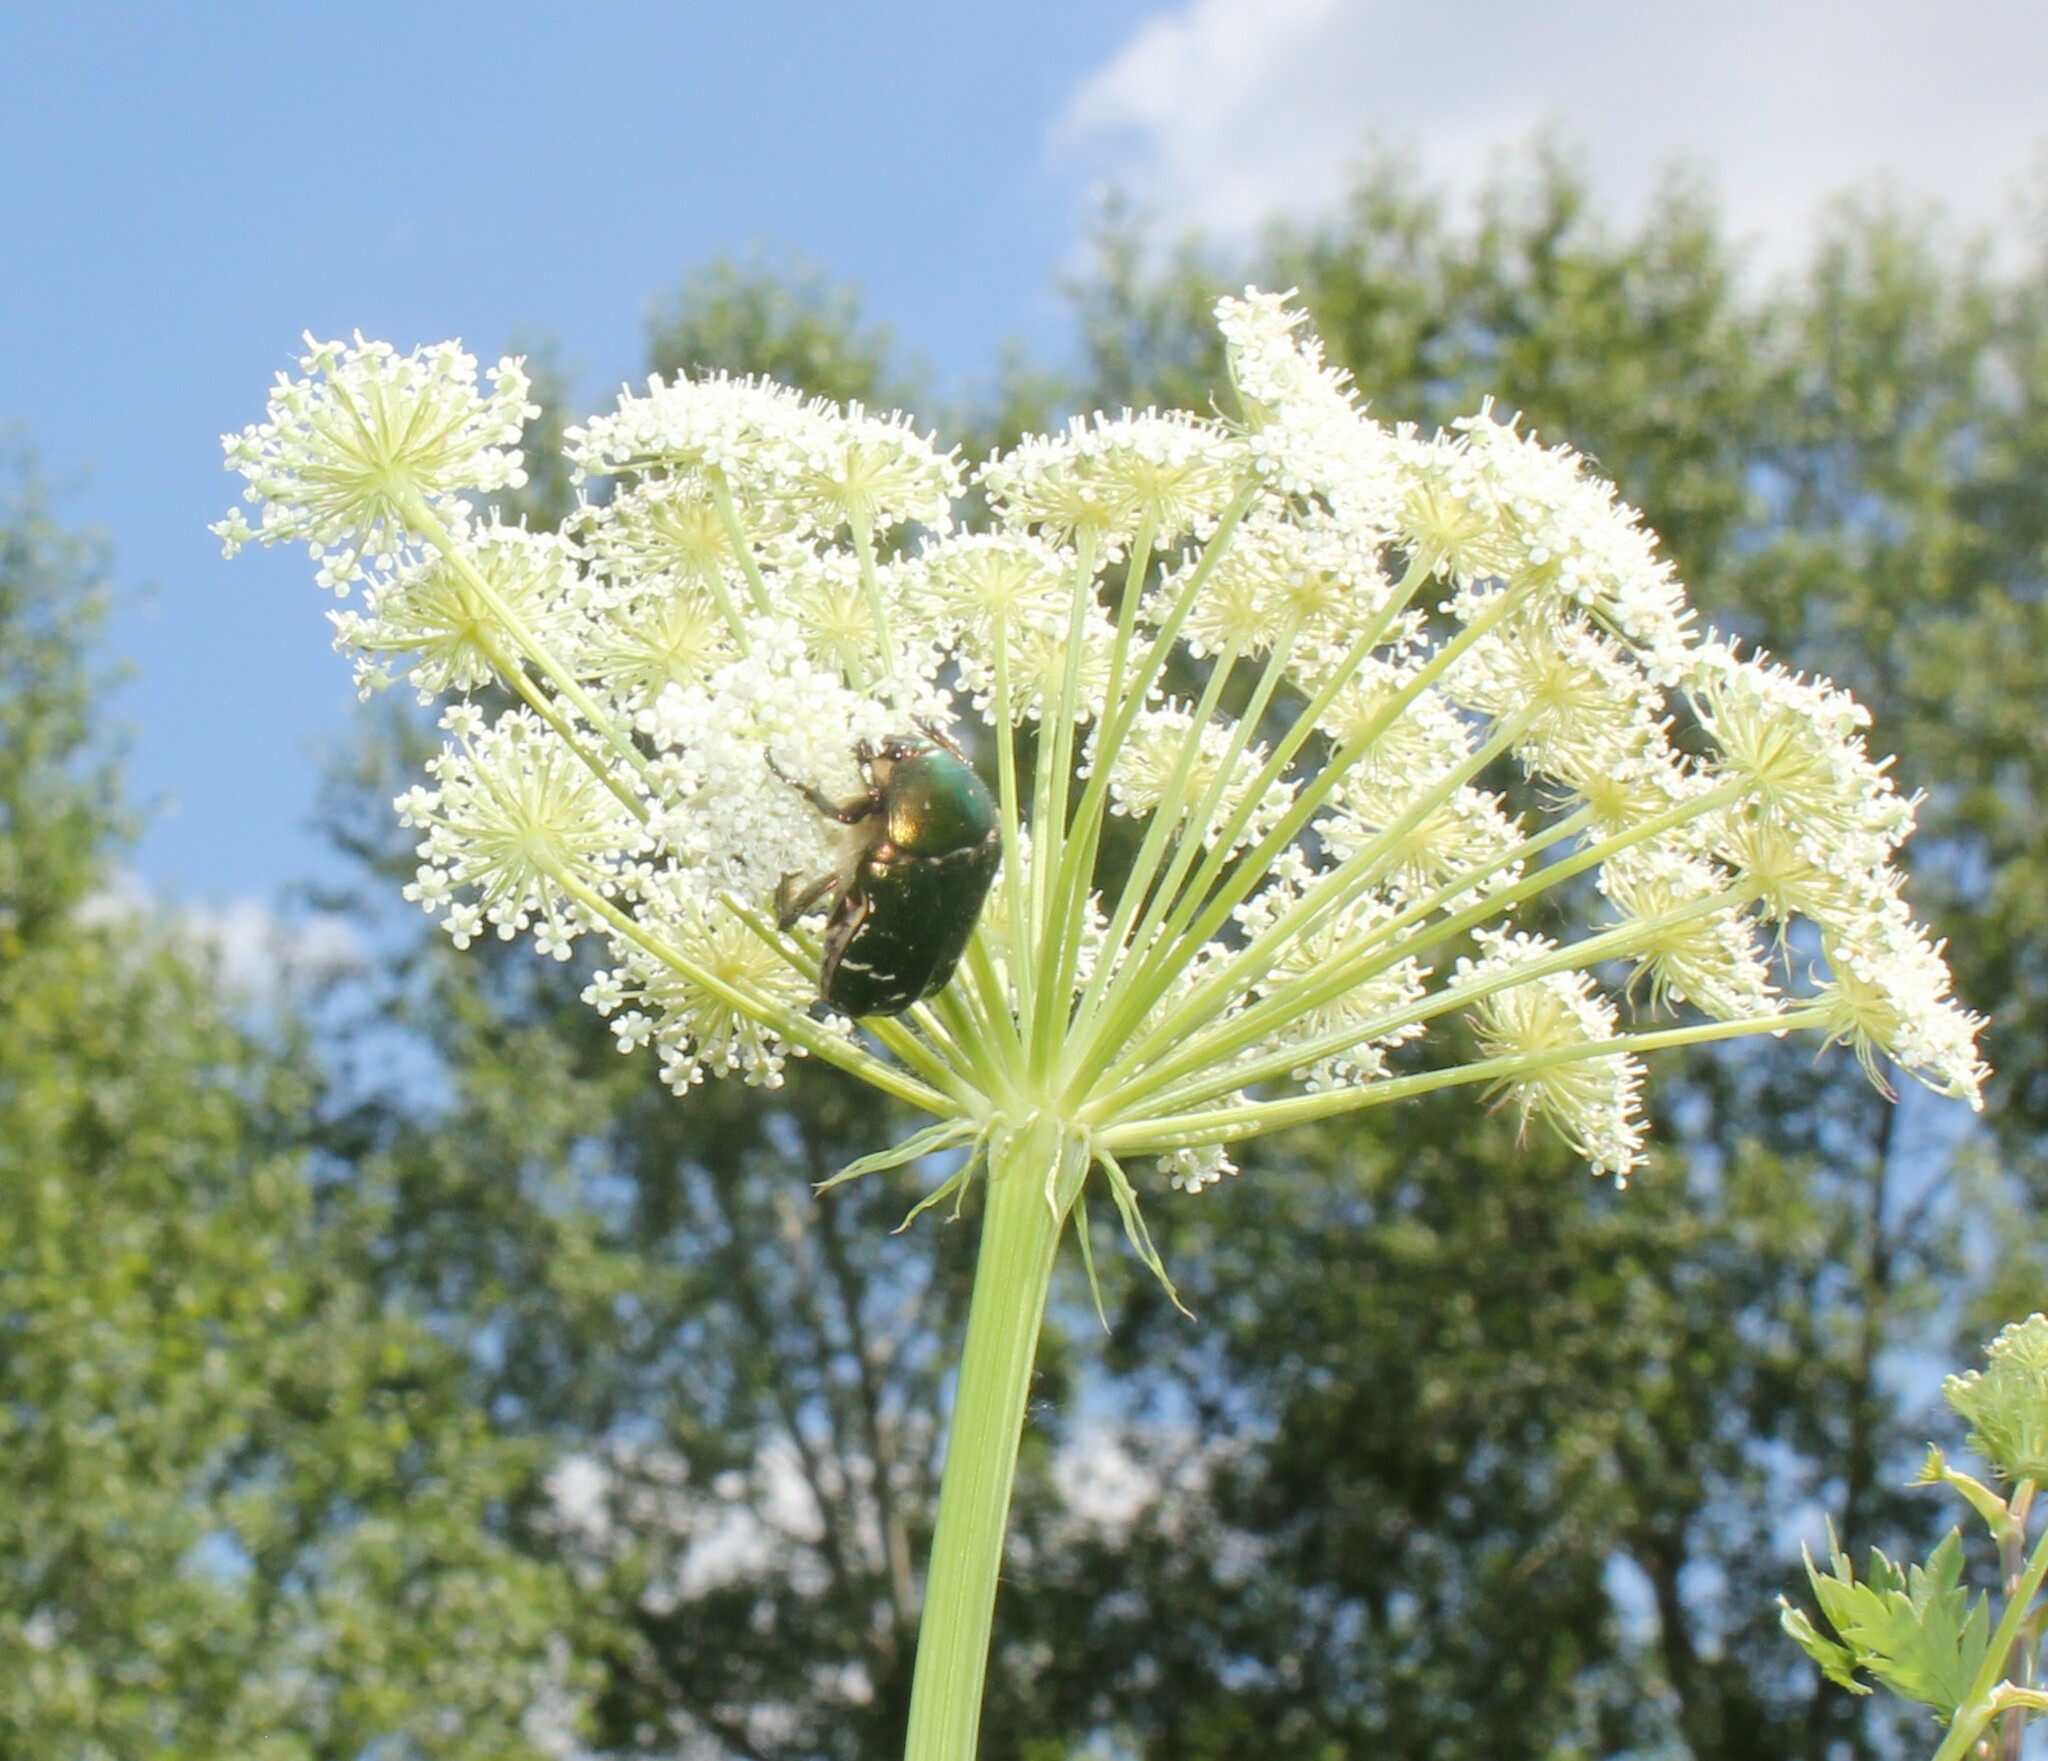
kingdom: Animalia
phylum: Arthropoda
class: Insecta
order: Coleoptera
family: Scarabaeidae
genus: Cetonia
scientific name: Cetonia aurata
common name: Rose chafer
